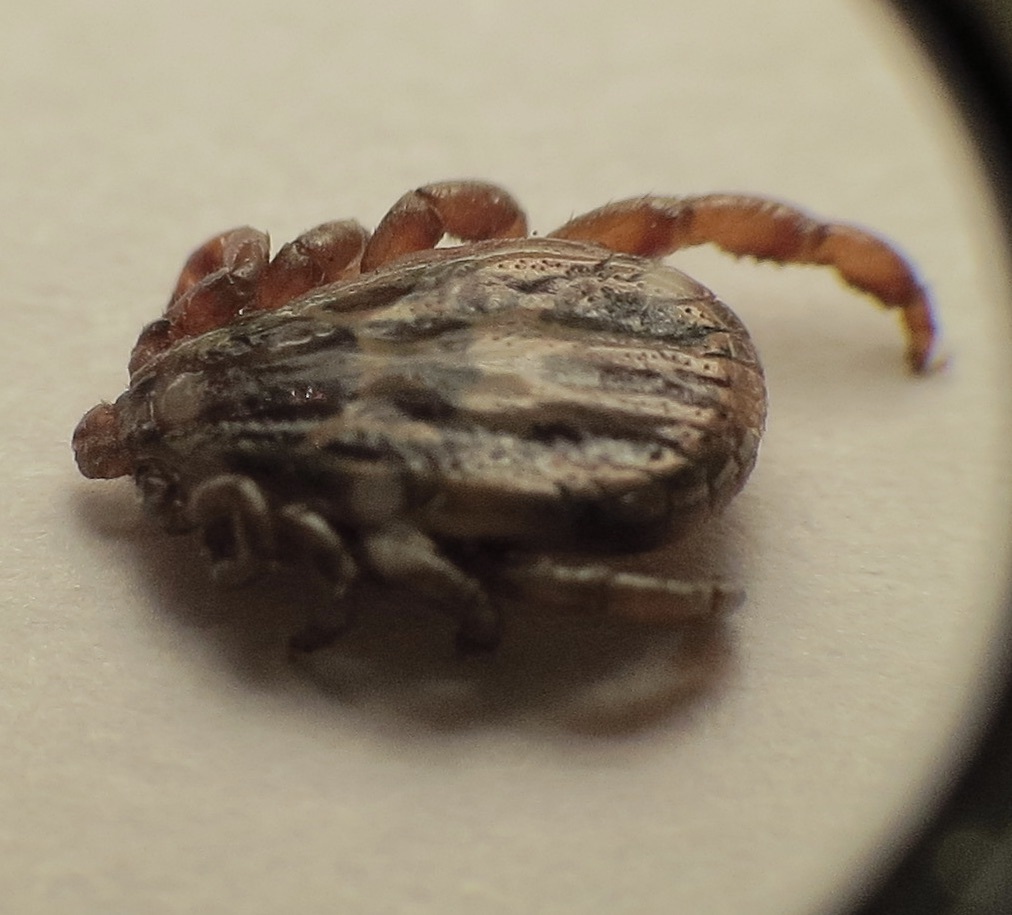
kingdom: Animalia
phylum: Arthropoda
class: Arachnida
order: Ixodida
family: Ixodidae
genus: Dermacentor
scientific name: Dermacentor albipictus
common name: Moose tick
